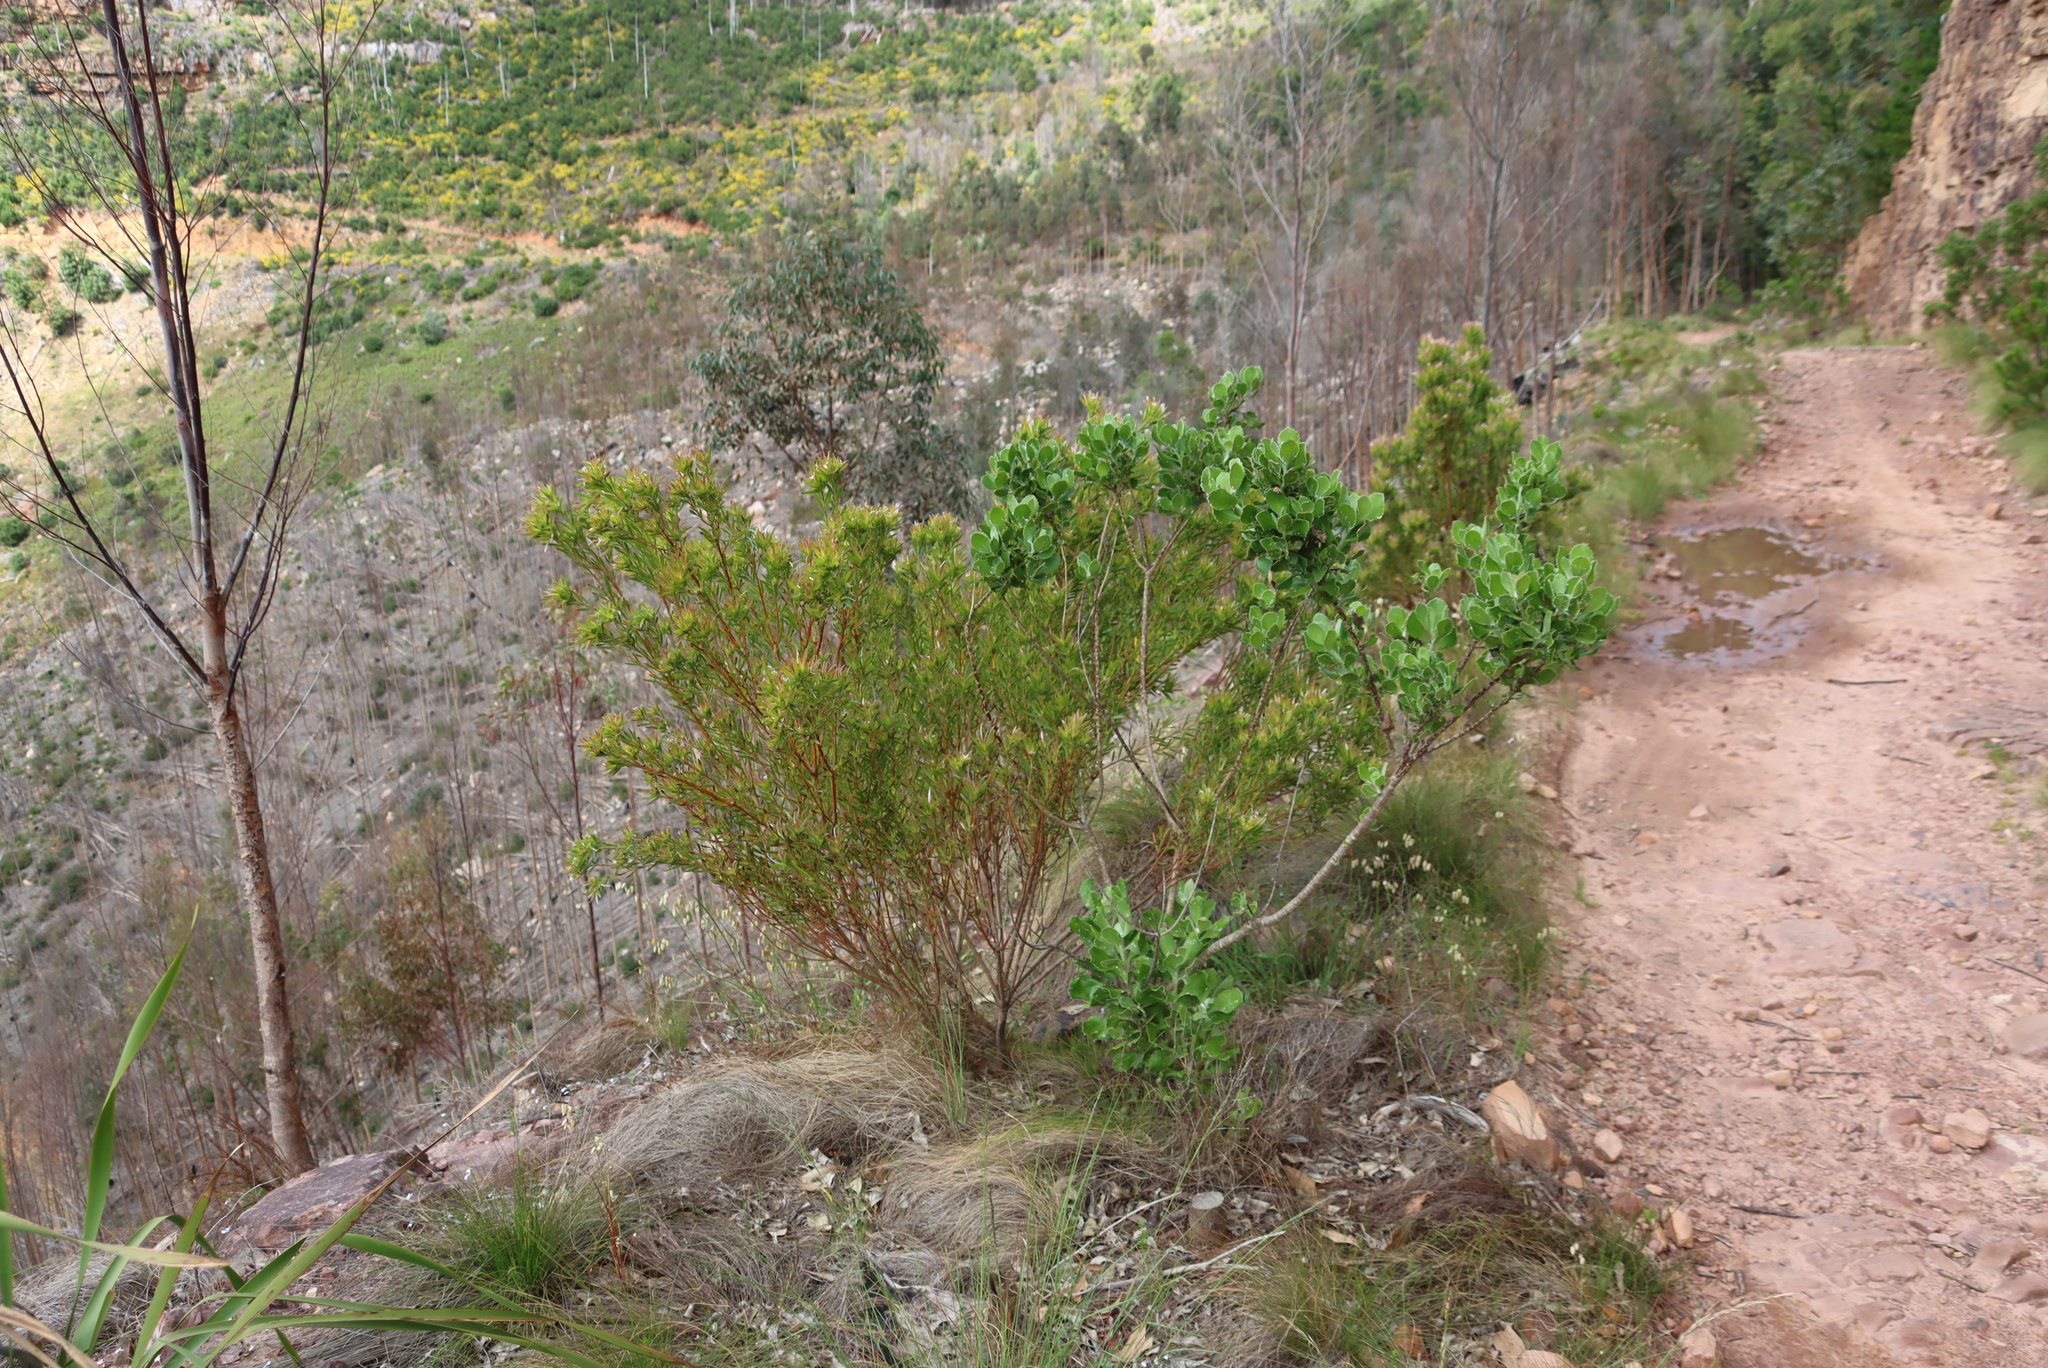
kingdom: Plantae
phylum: Tracheophyta
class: Magnoliopsida
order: Proteales
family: Proteaceae
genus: Leucadendron
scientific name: Leucadendron xanthoconus
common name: Sickle-leaf conebush
